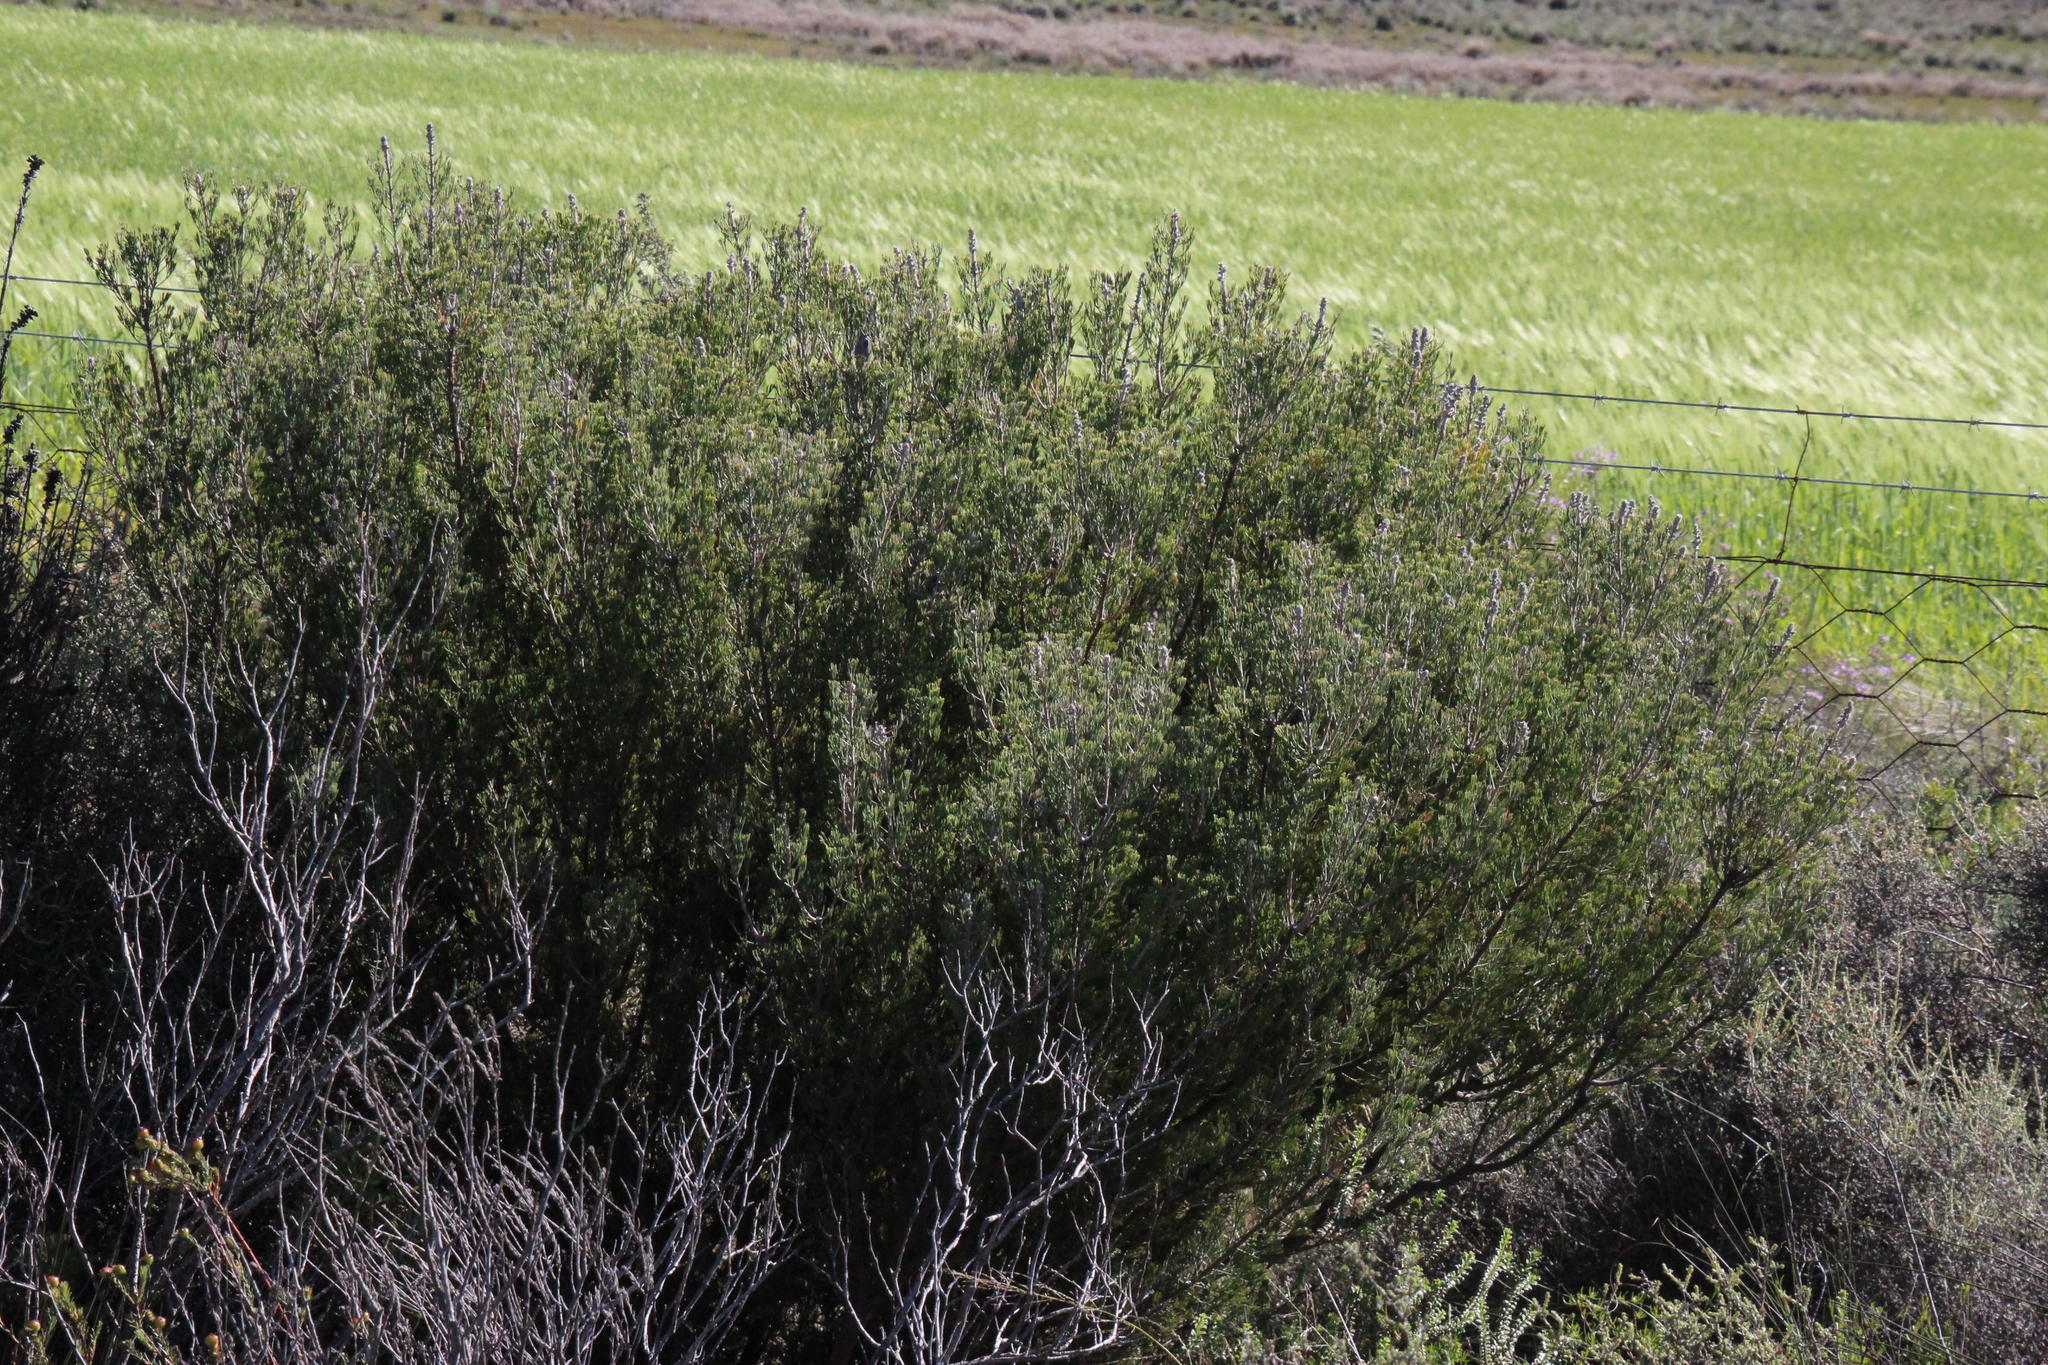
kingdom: Plantae
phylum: Tracheophyta
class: Magnoliopsida
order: Proteales
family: Proteaceae
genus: Paranomus
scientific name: Paranomus bracteolaris
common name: Bokkeveld tree sceptre
